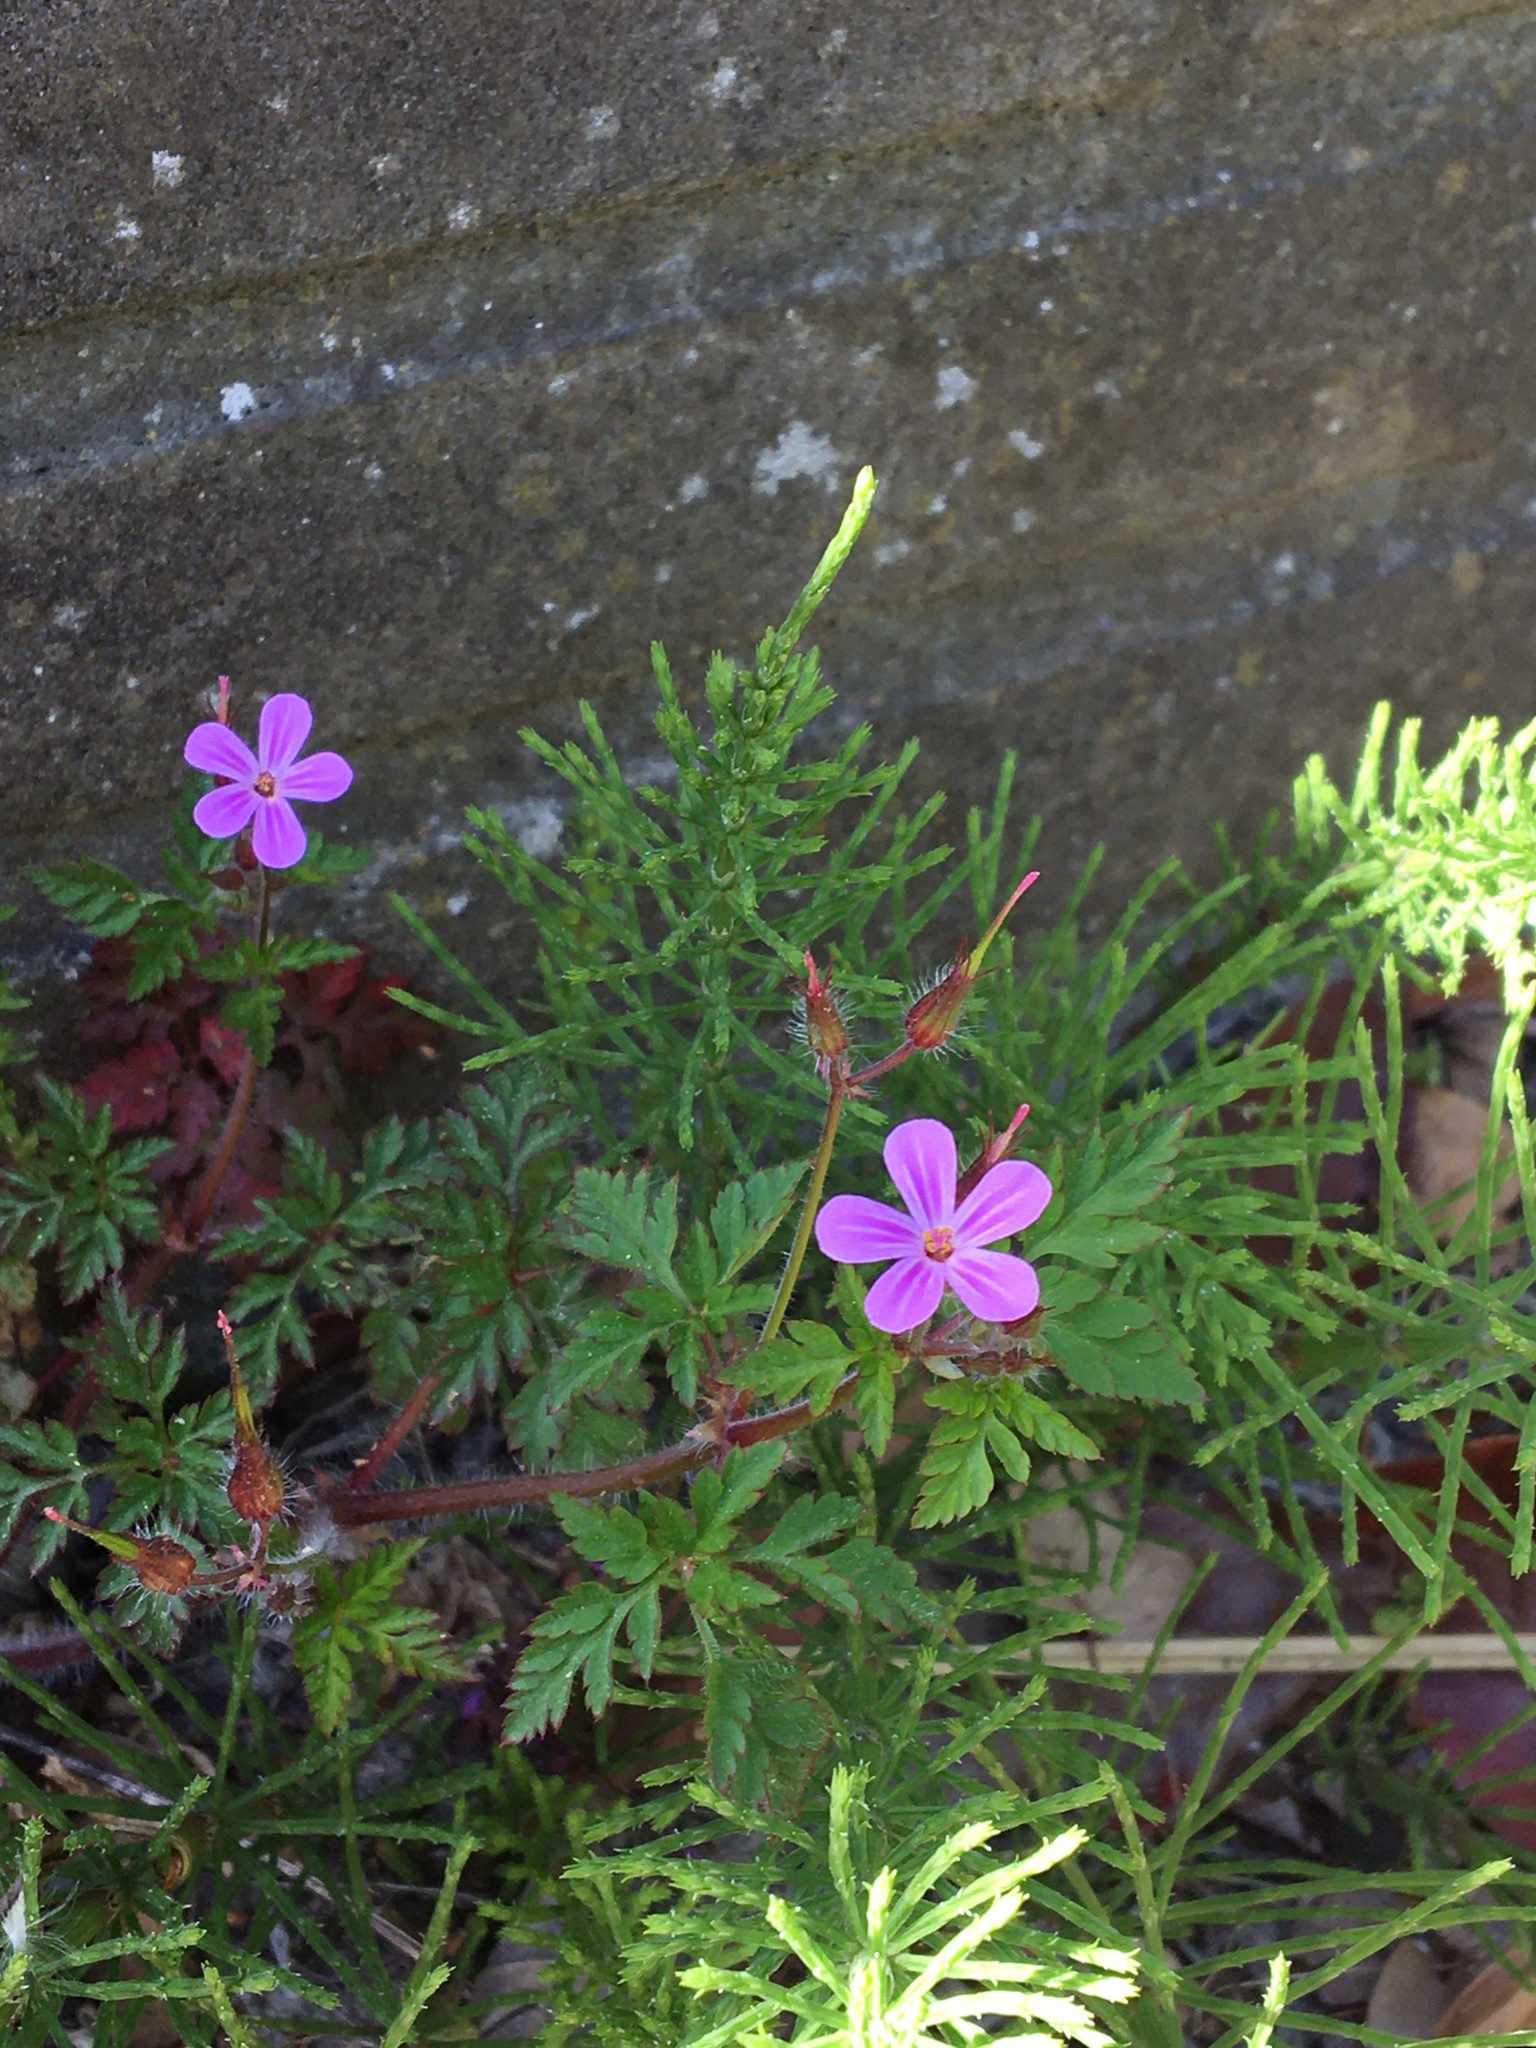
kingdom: Plantae
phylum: Tracheophyta
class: Magnoliopsida
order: Geraniales
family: Geraniaceae
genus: Geranium
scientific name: Geranium robertianum
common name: Herb-robert
